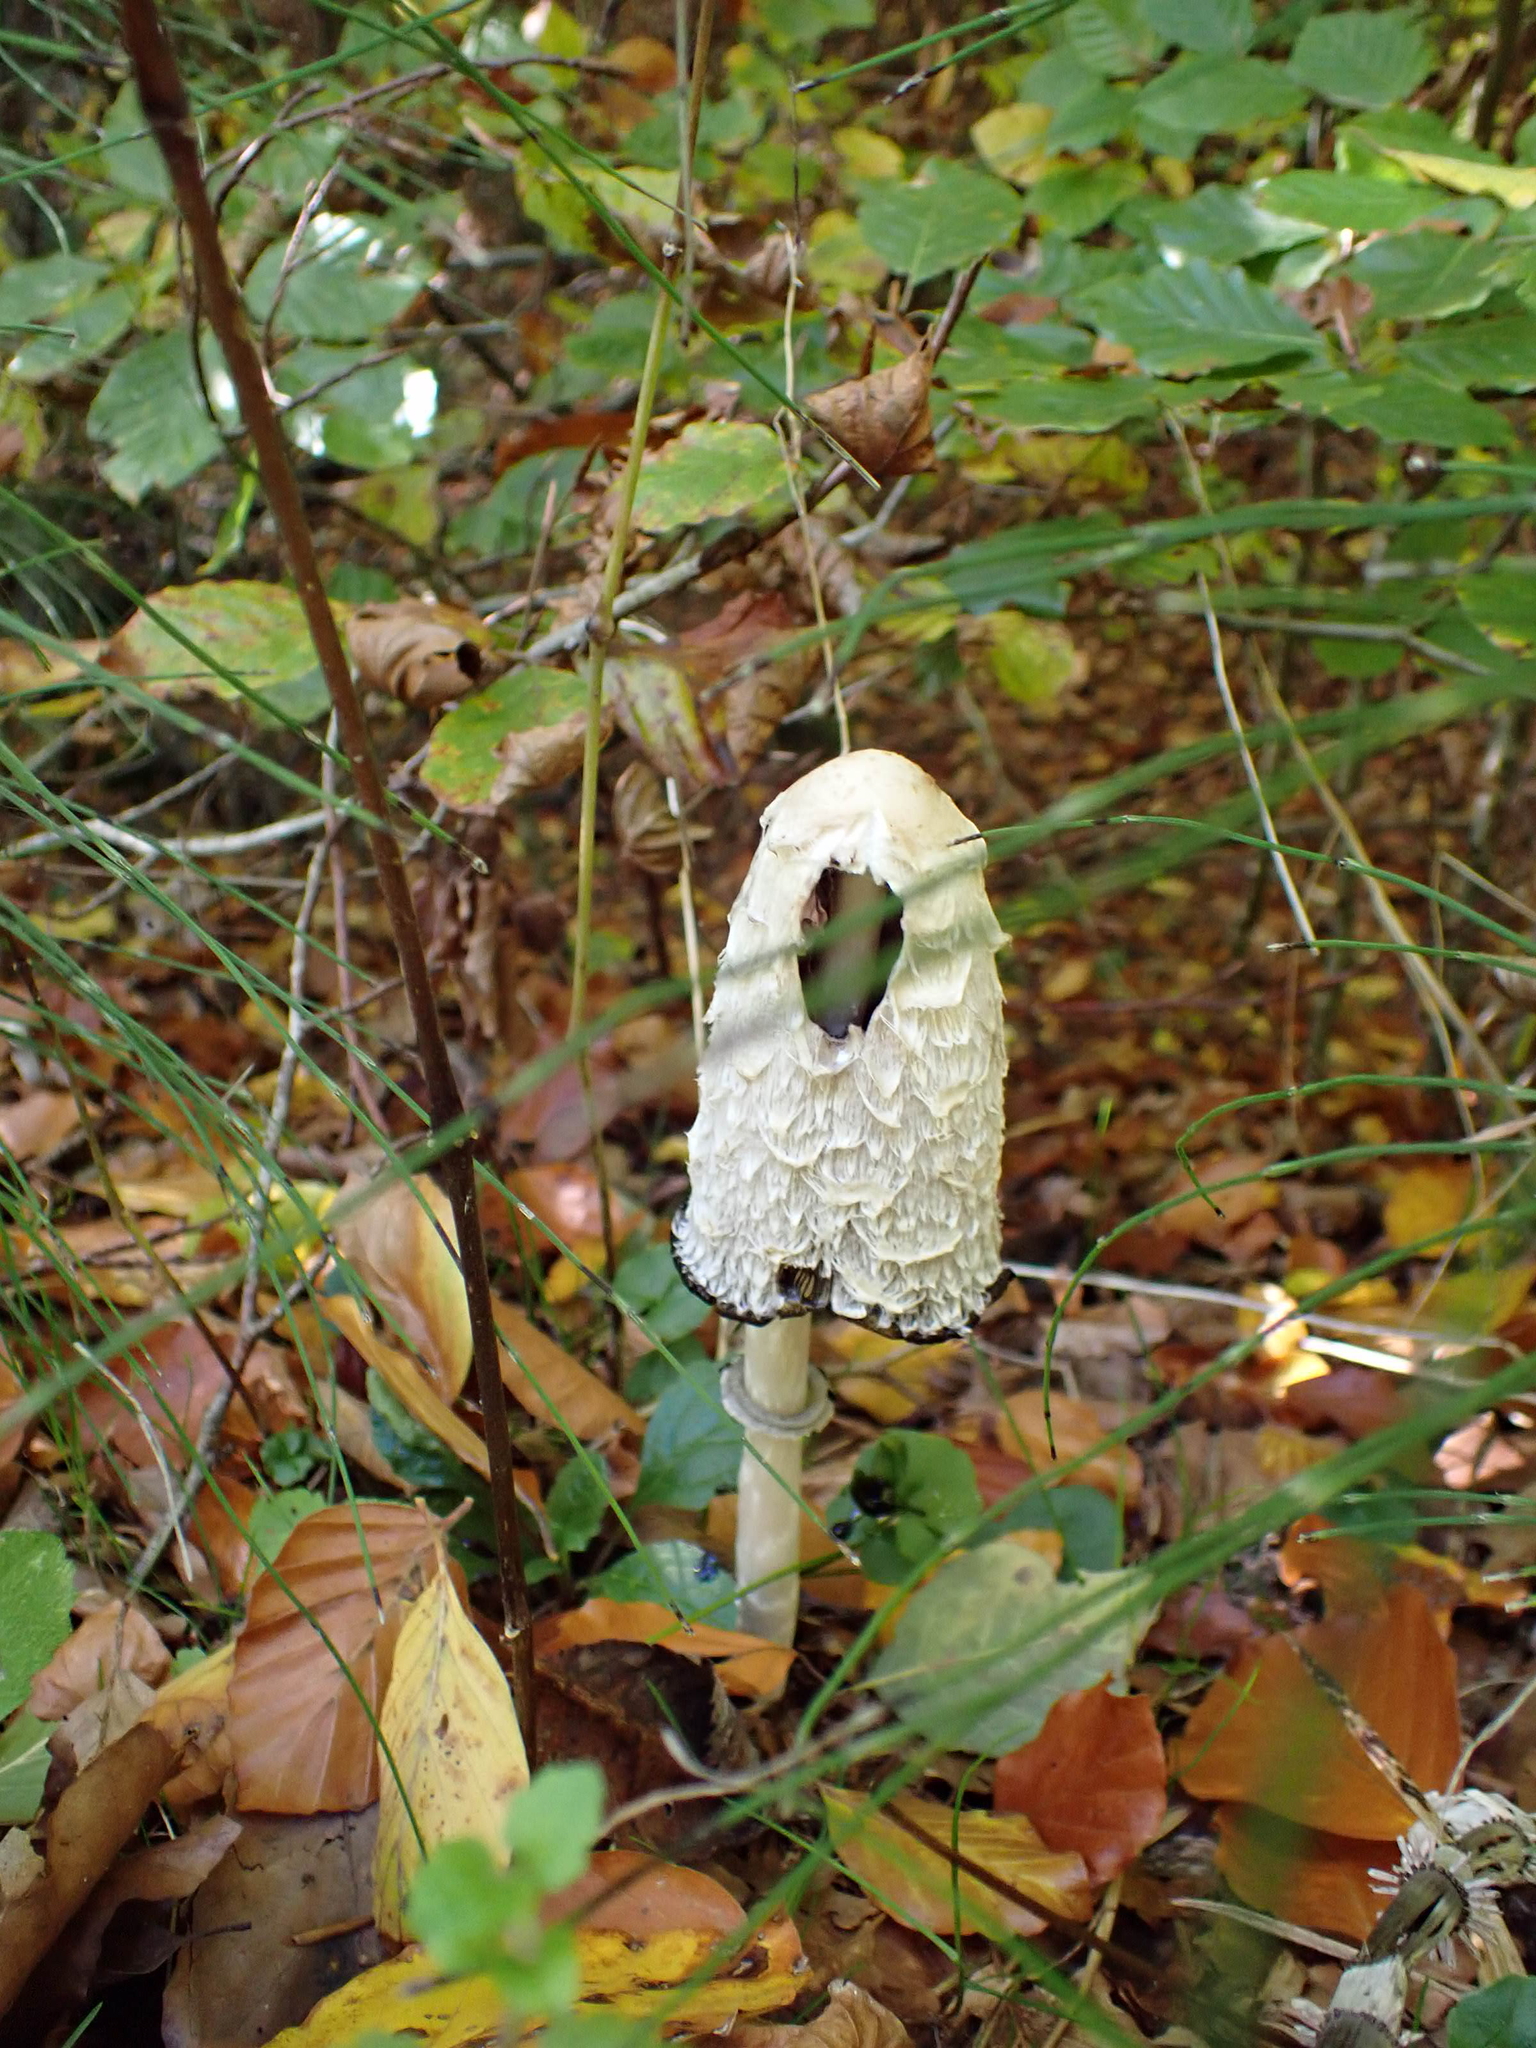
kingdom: Fungi
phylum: Basidiomycota
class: Agaricomycetes
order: Agaricales
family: Agaricaceae
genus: Coprinus
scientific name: Coprinus comatus
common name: Lawyer's wig
